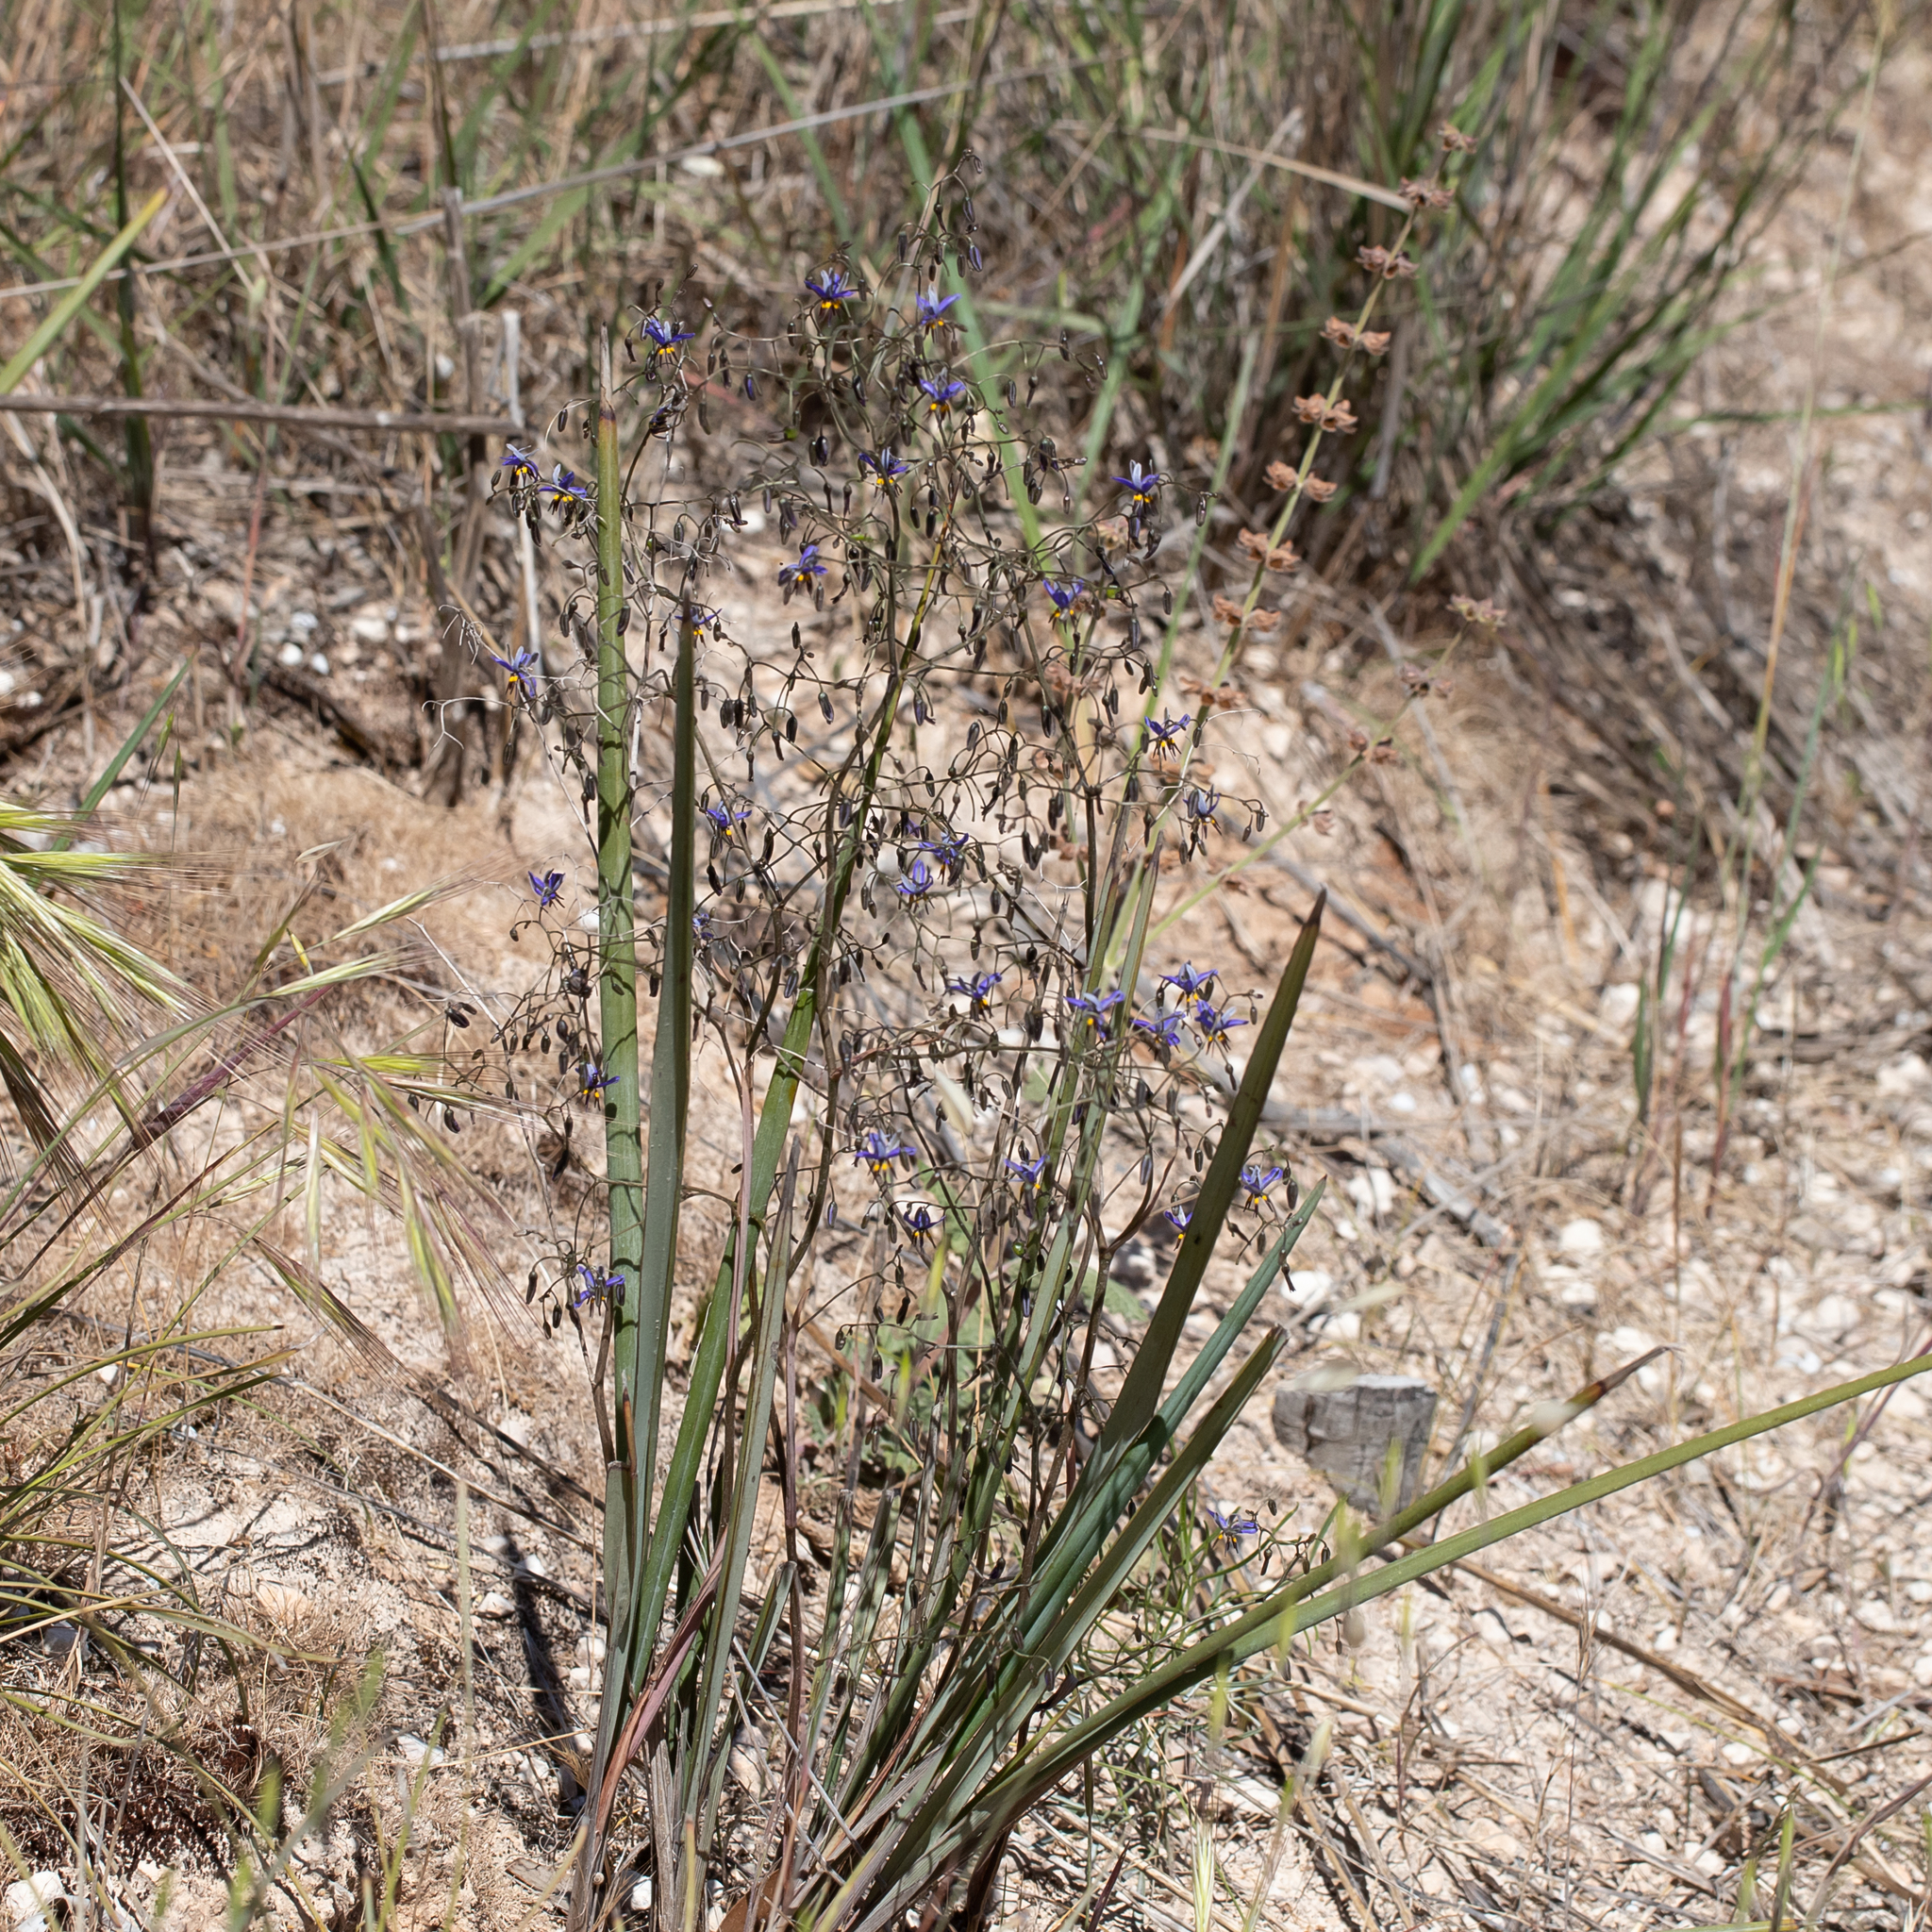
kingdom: Plantae
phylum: Tracheophyta
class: Liliopsida
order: Asparagales
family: Asphodelaceae
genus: Dianella
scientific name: Dianella revoluta
